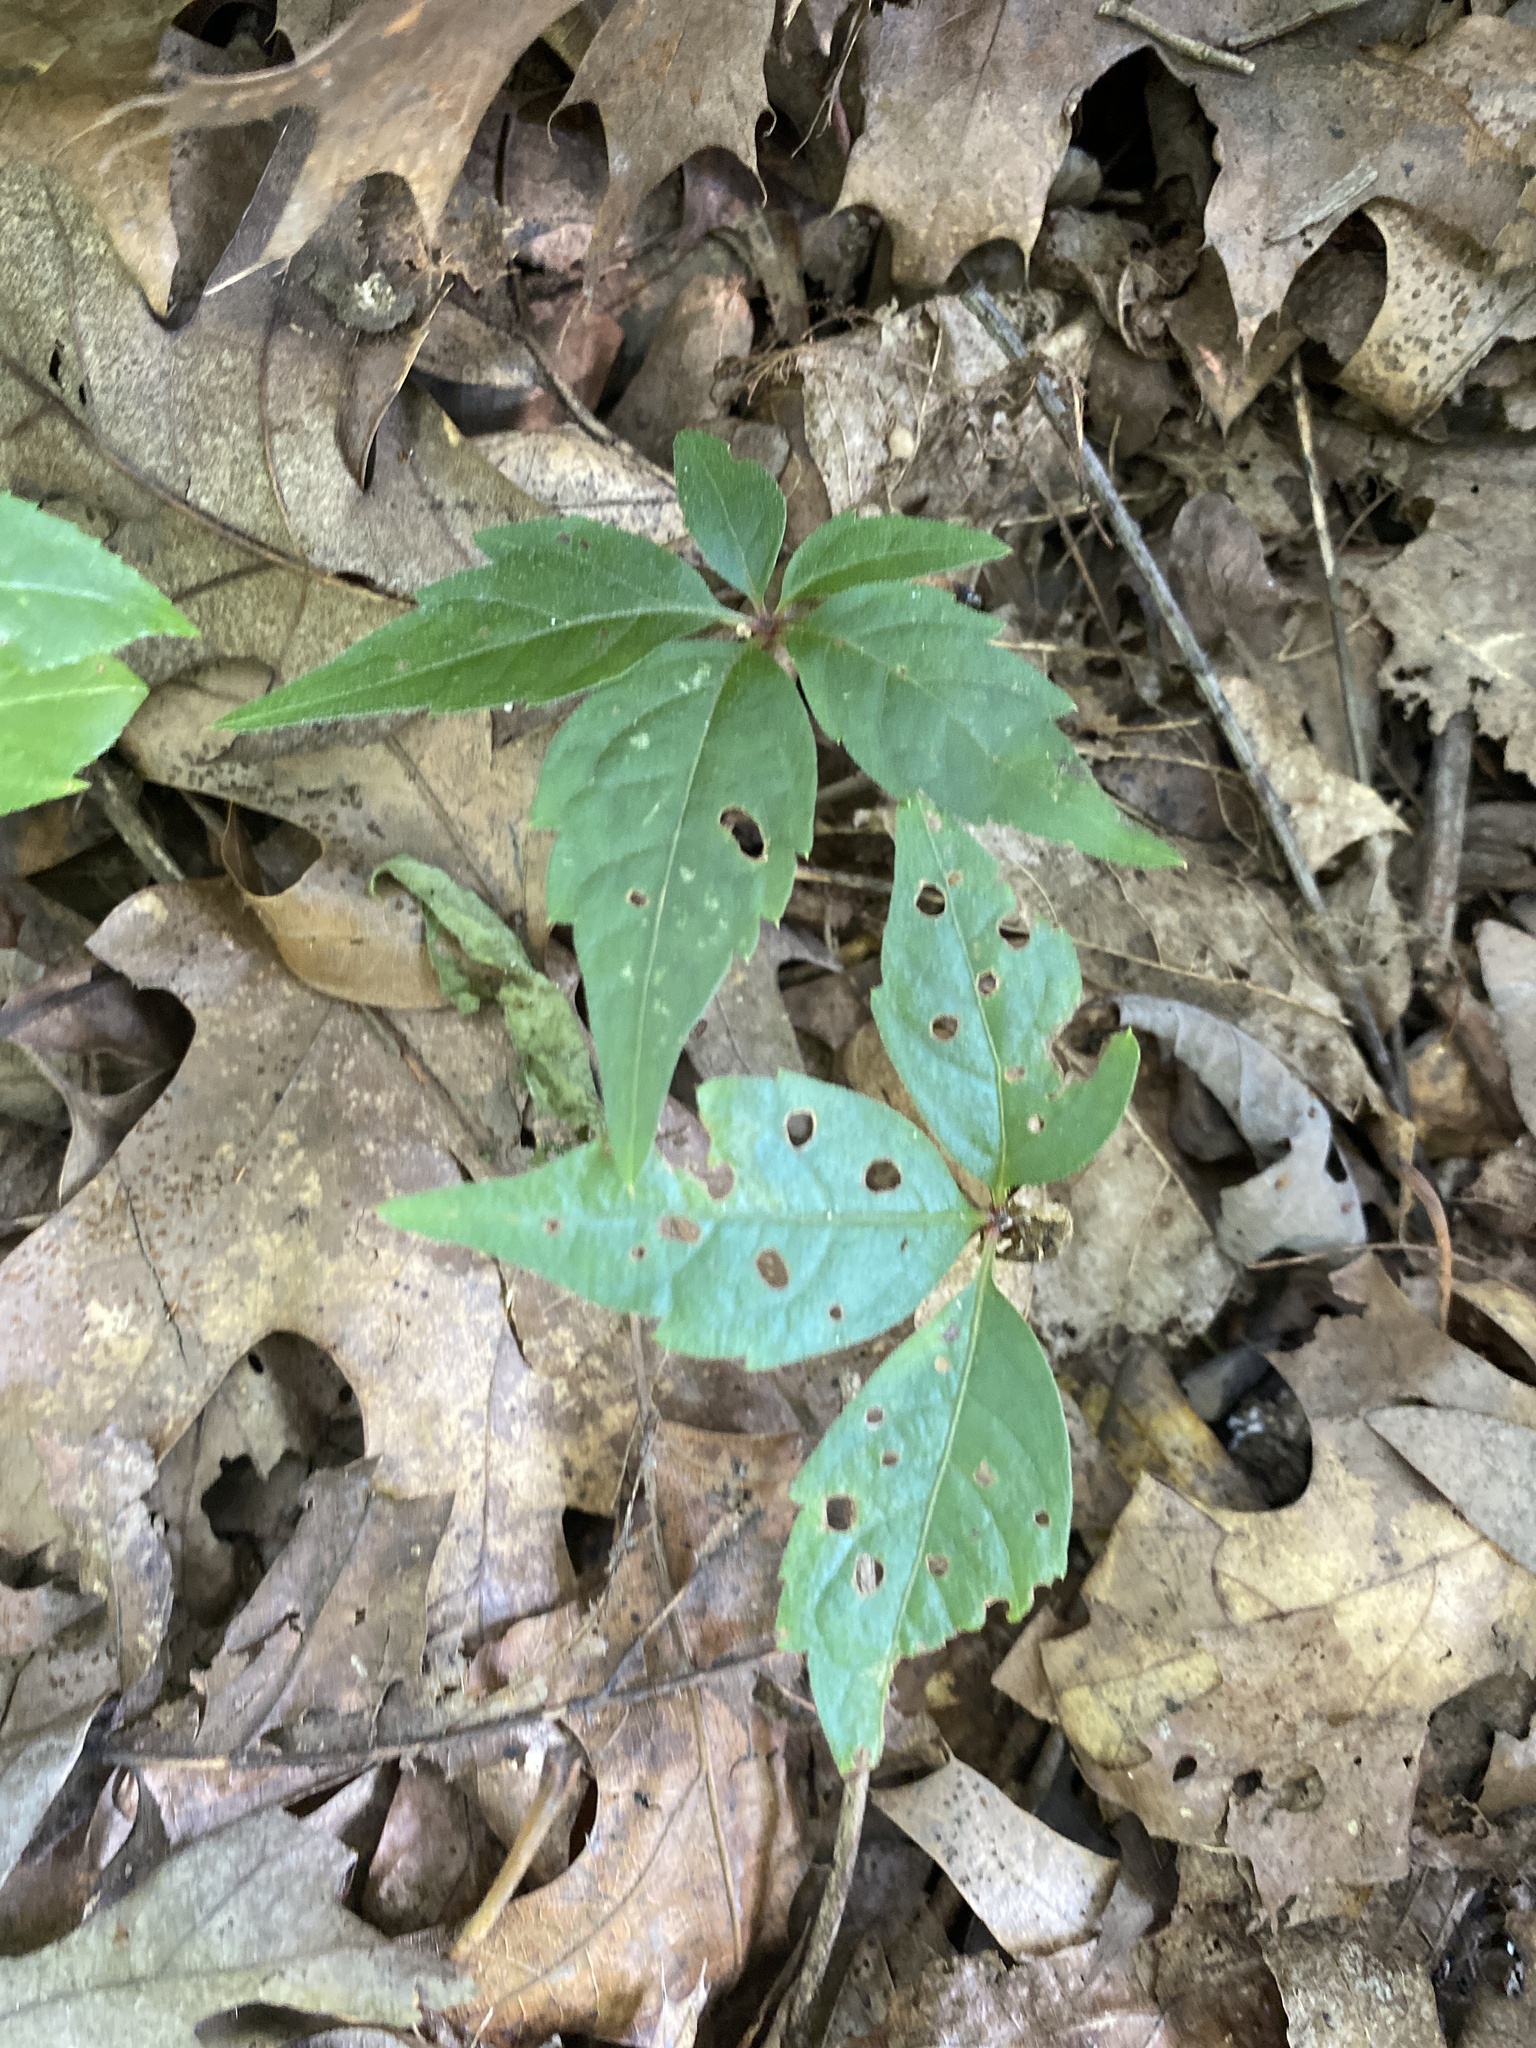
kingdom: Plantae
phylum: Tracheophyta
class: Magnoliopsida
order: Vitales
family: Vitaceae
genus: Parthenocissus
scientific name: Parthenocissus quinquefolia
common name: Virginia-creeper
